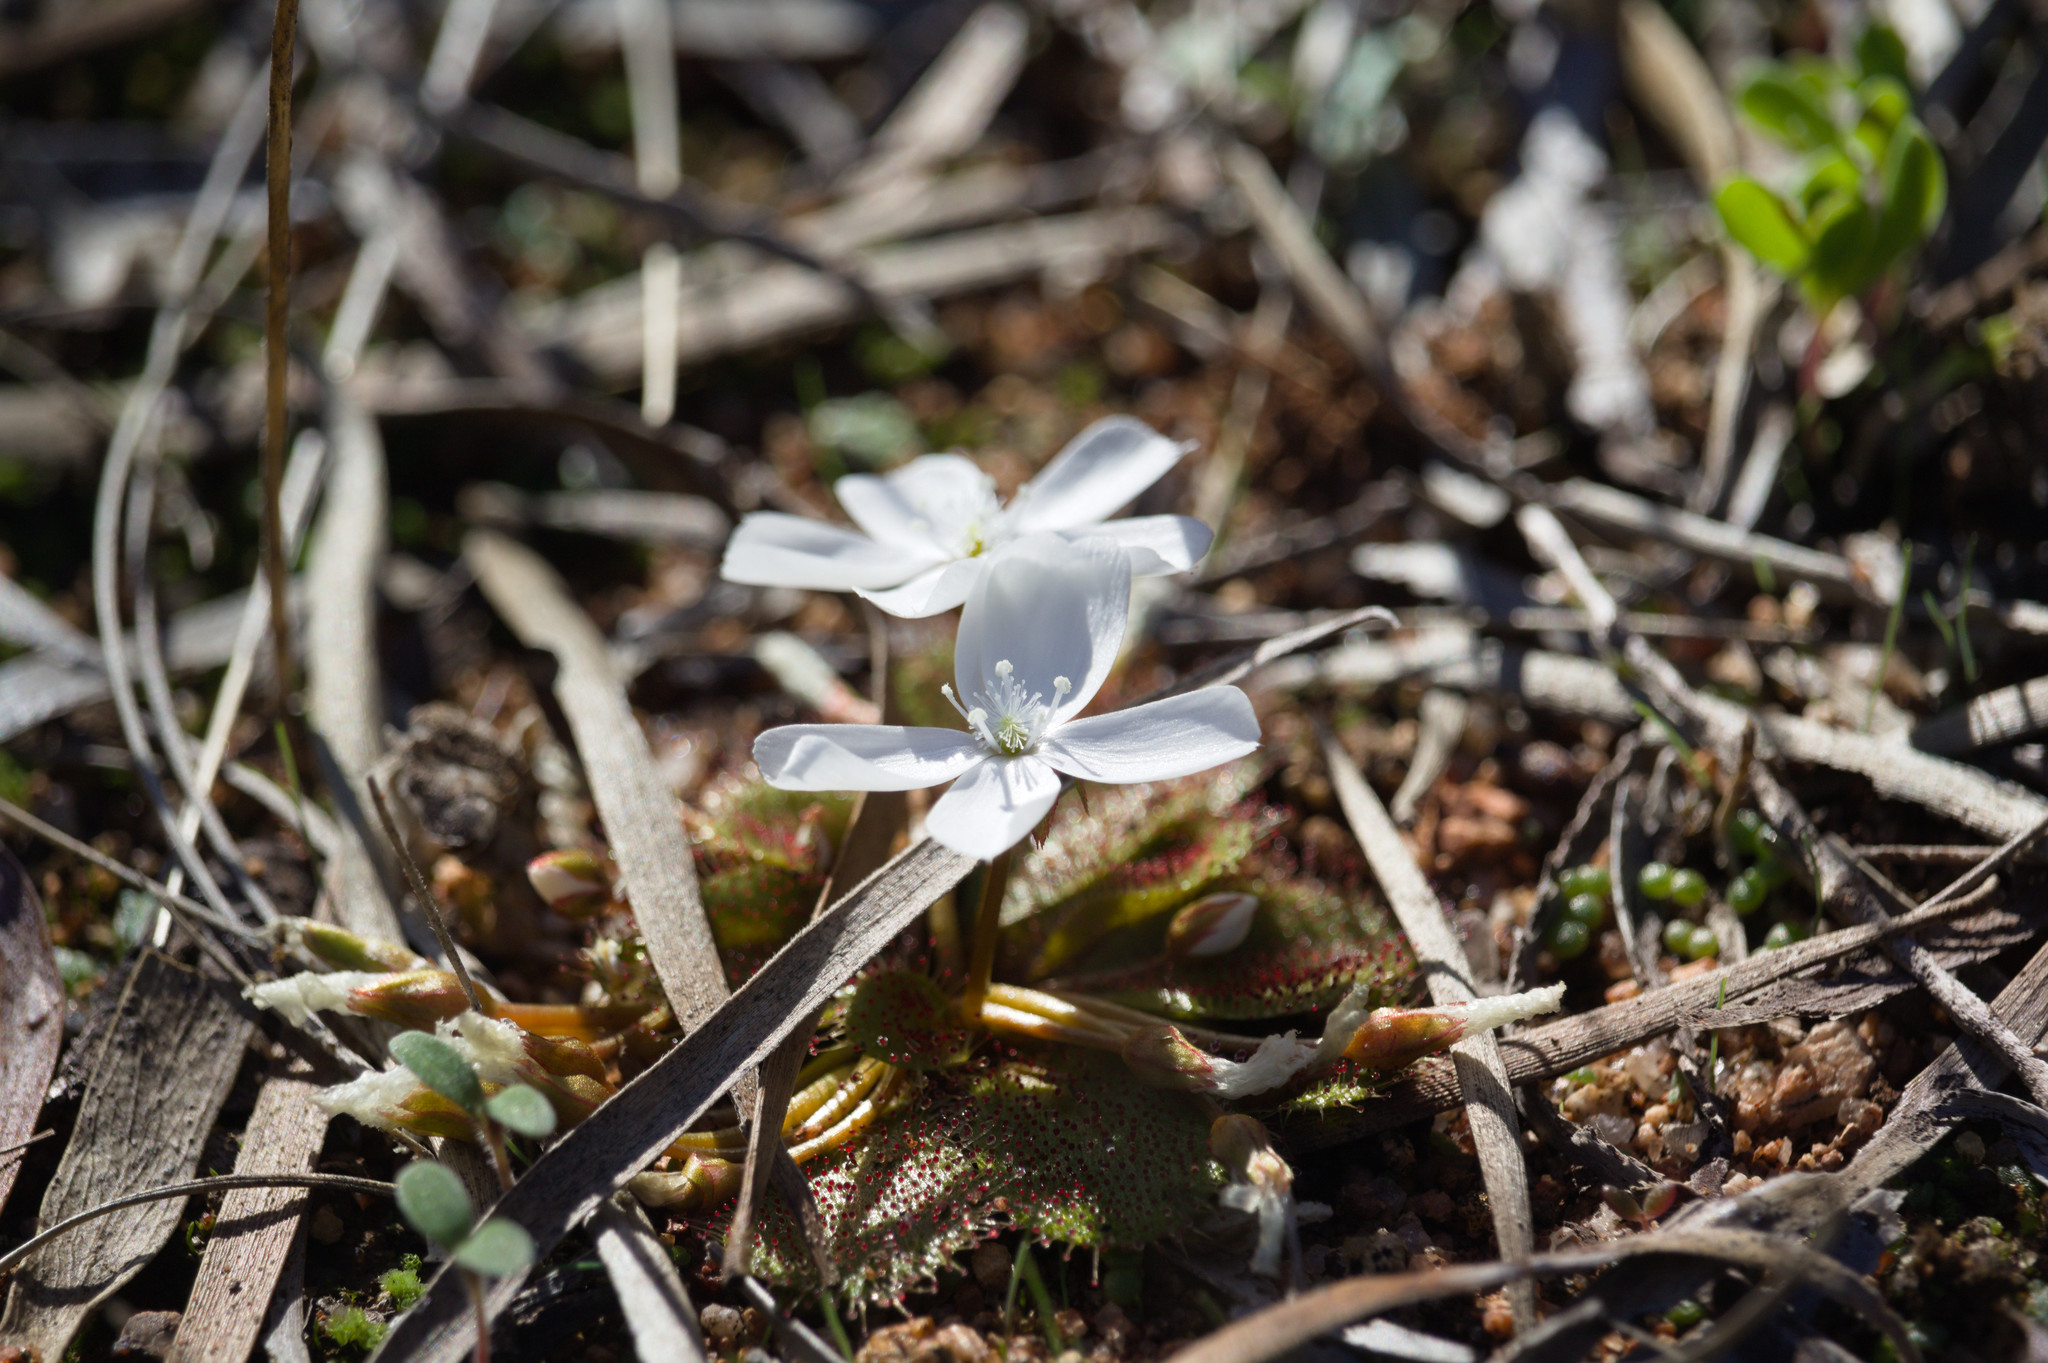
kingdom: Plantae
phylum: Tracheophyta
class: Magnoliopsida
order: Caryophyllales
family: Droseraceae
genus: Drosera
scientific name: Drosera bulbosa
